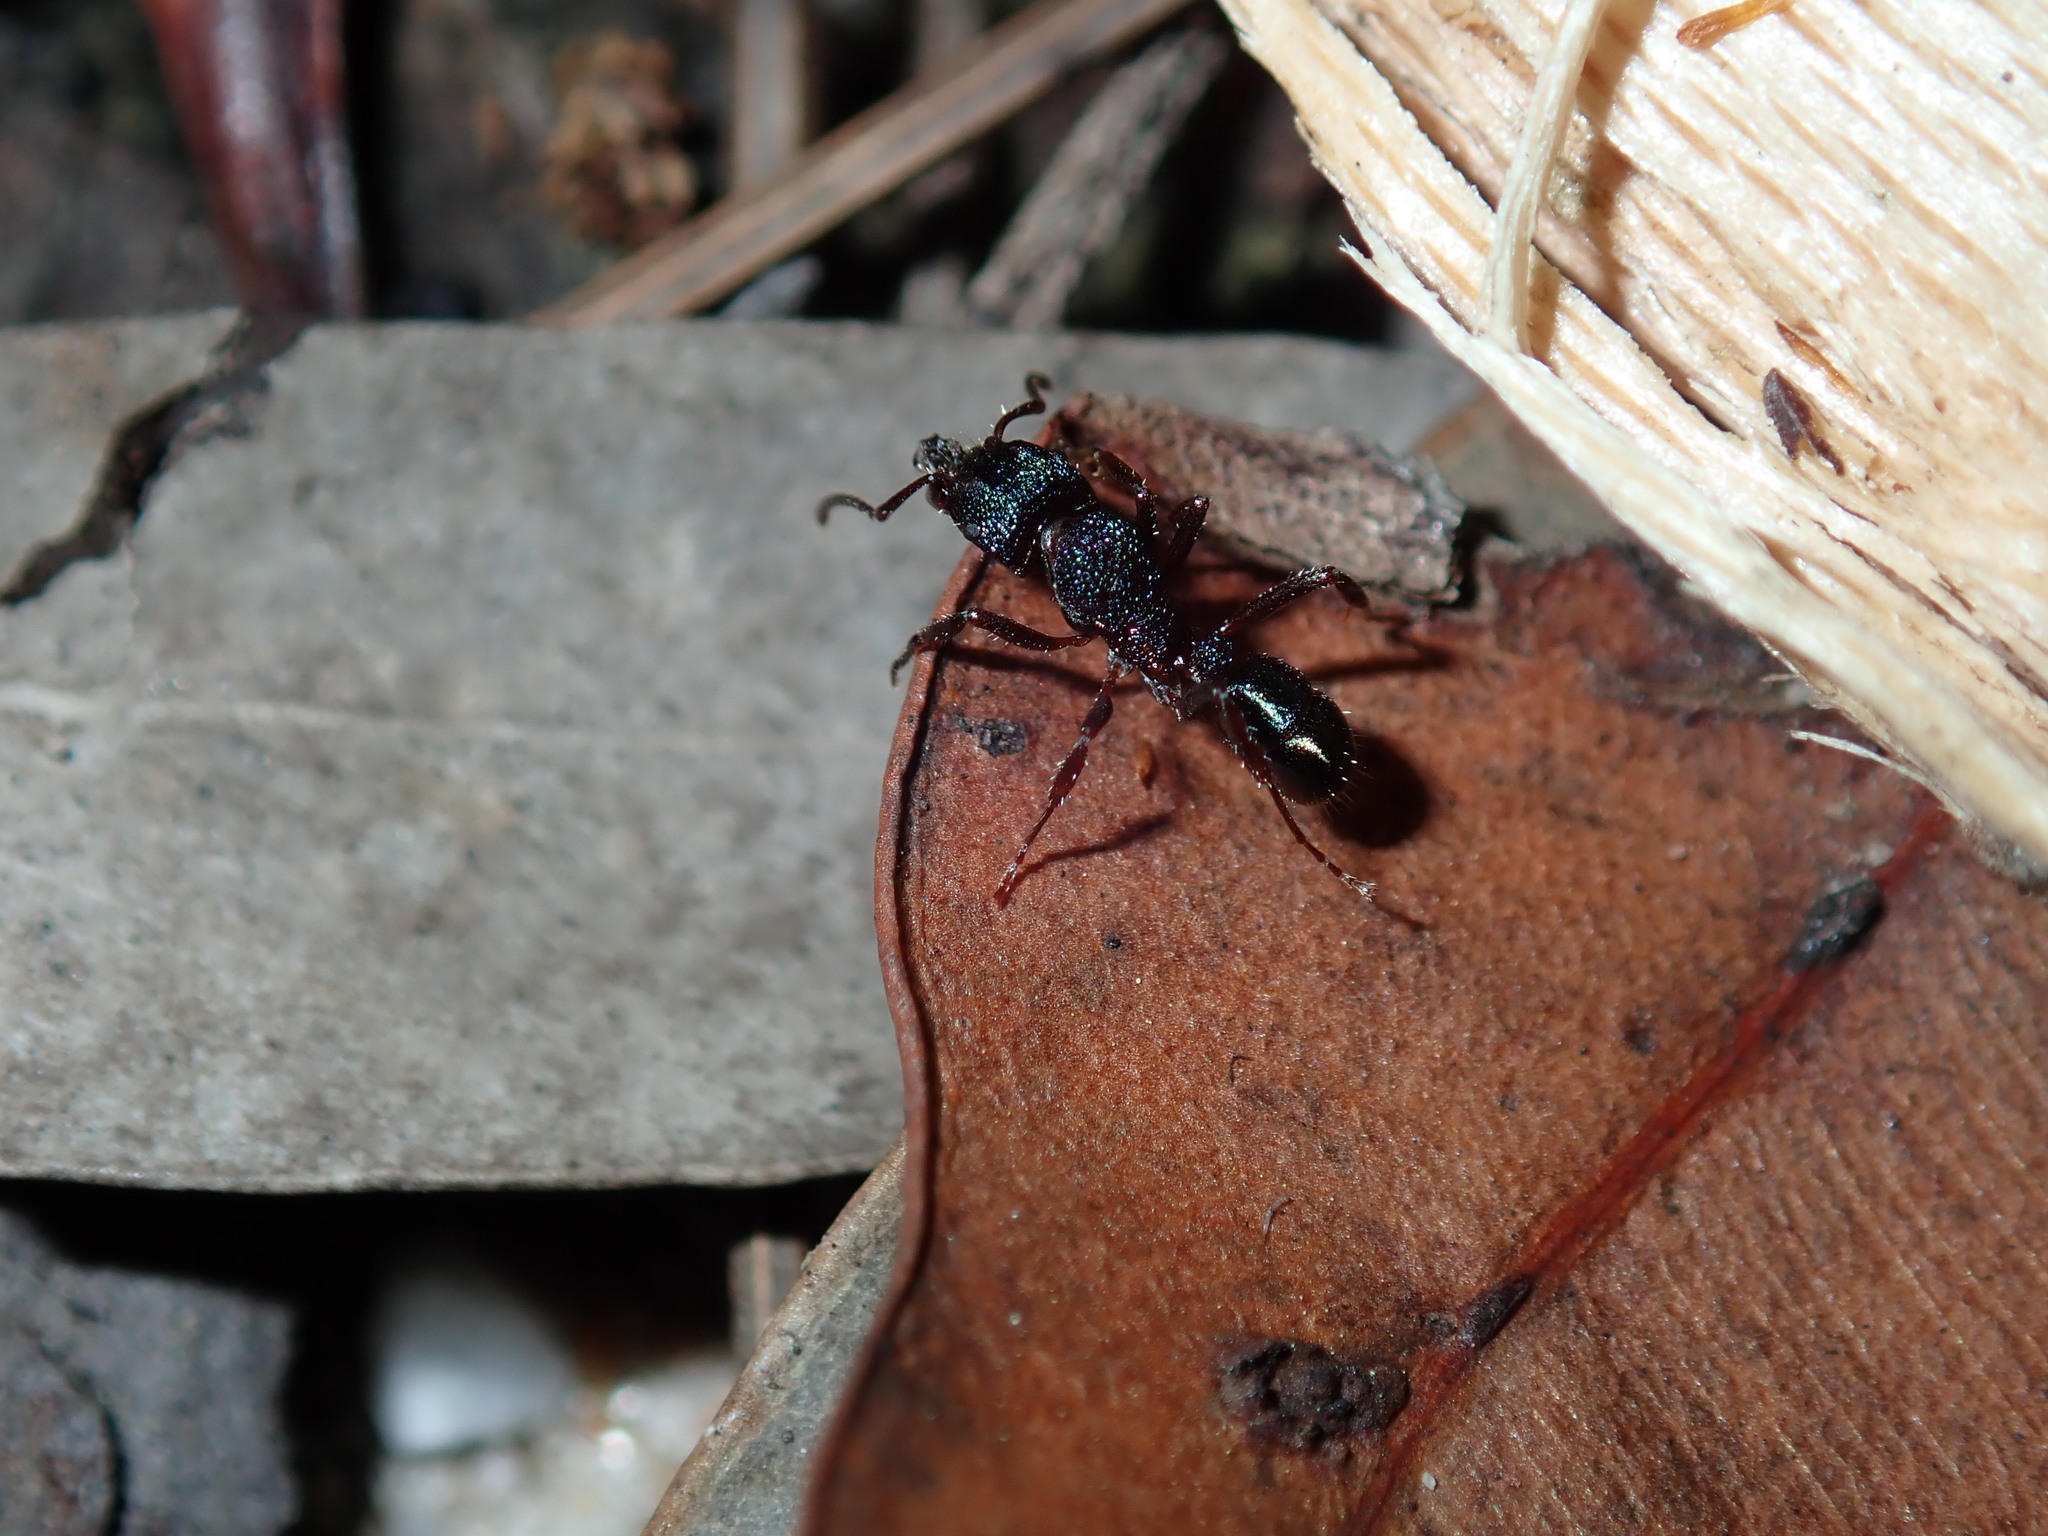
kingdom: Animalia
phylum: Arthropoda
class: Insecta
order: Hymenoptera
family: Formicidae
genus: Rhytidoponera
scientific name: Rhytidoponera metallica
